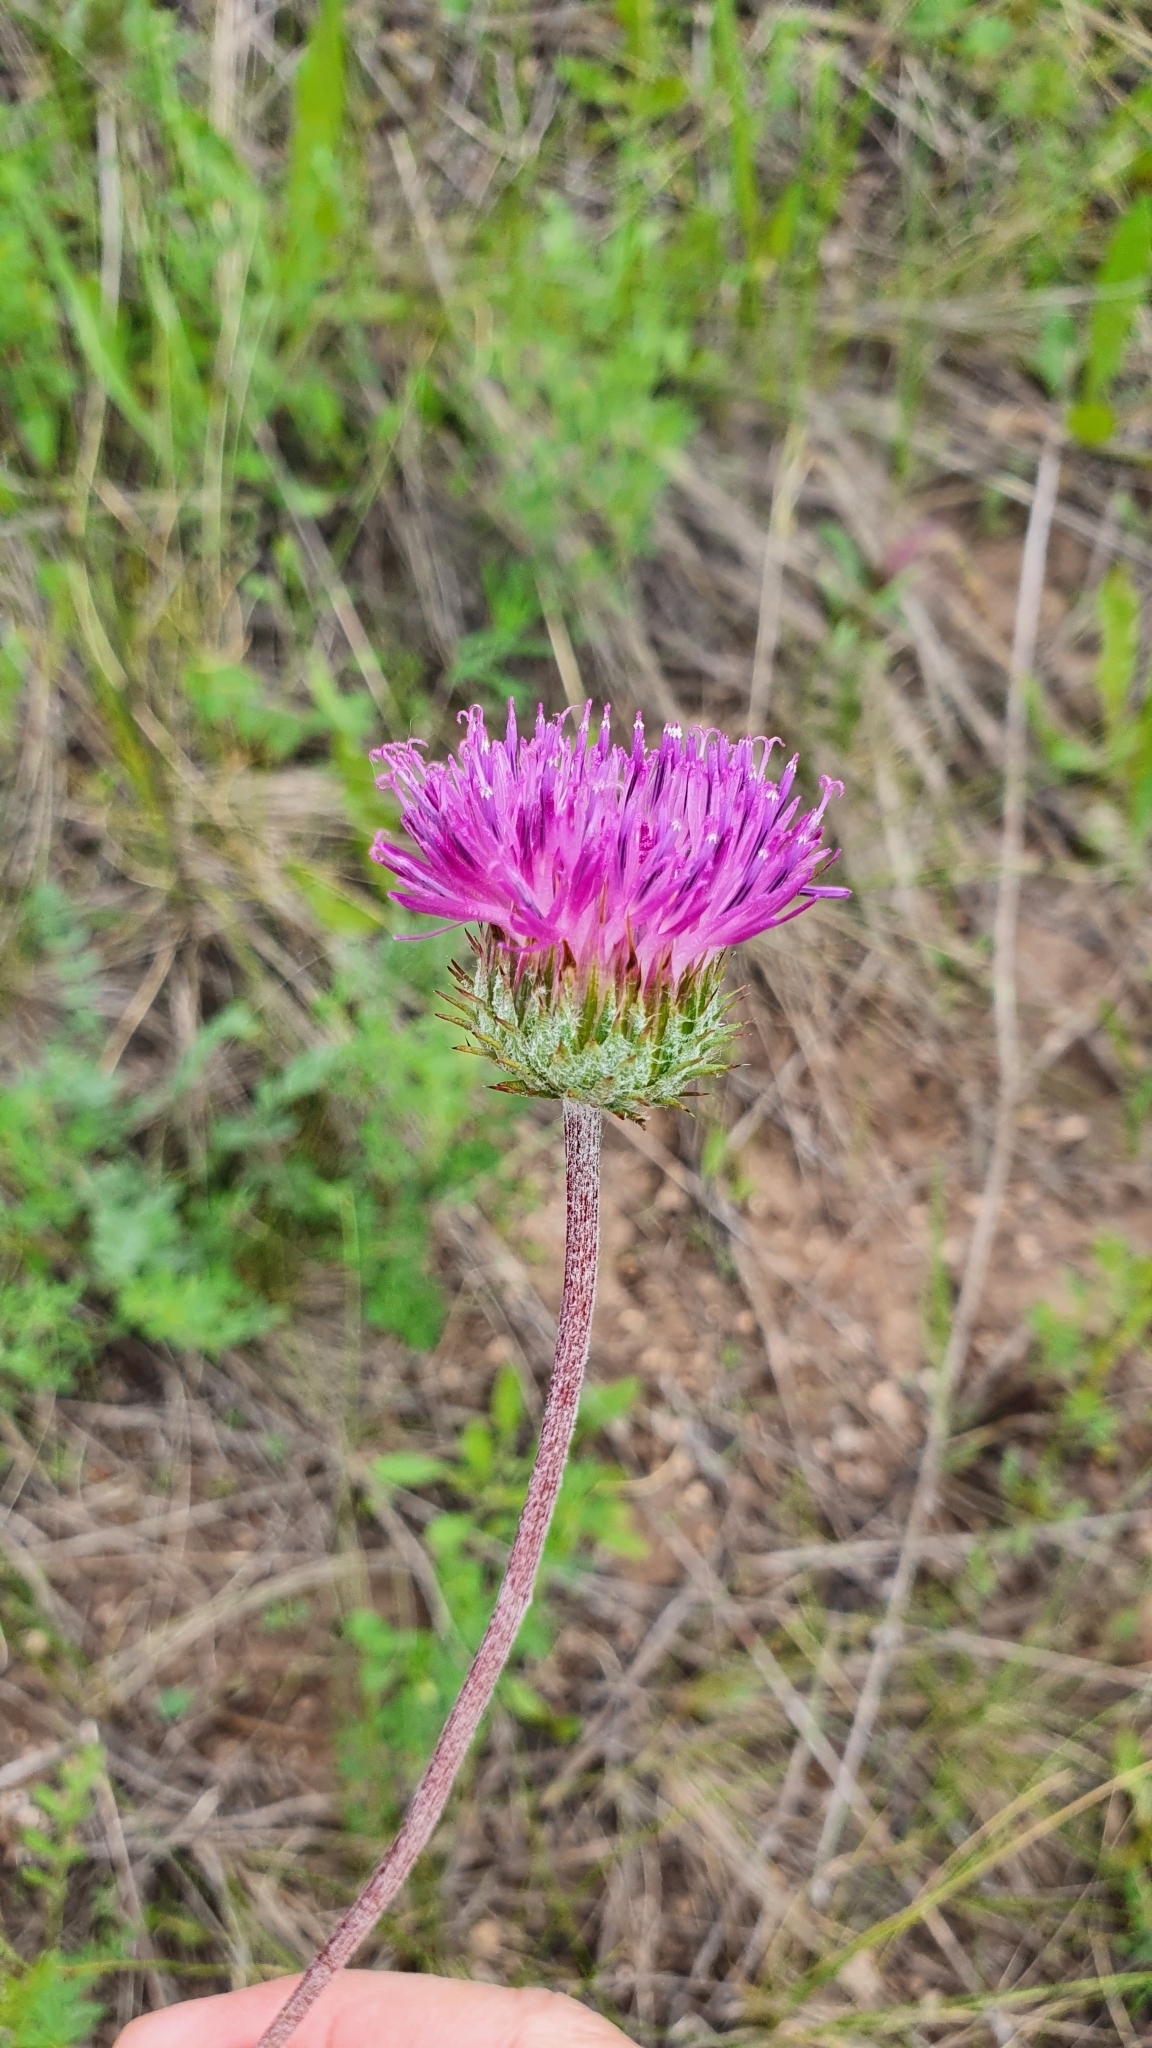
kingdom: Plantae
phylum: Tracheophyta
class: Magnoliopsida
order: Asterales
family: Asteraceae
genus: Jurinea
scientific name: Jurinea ledebourii
